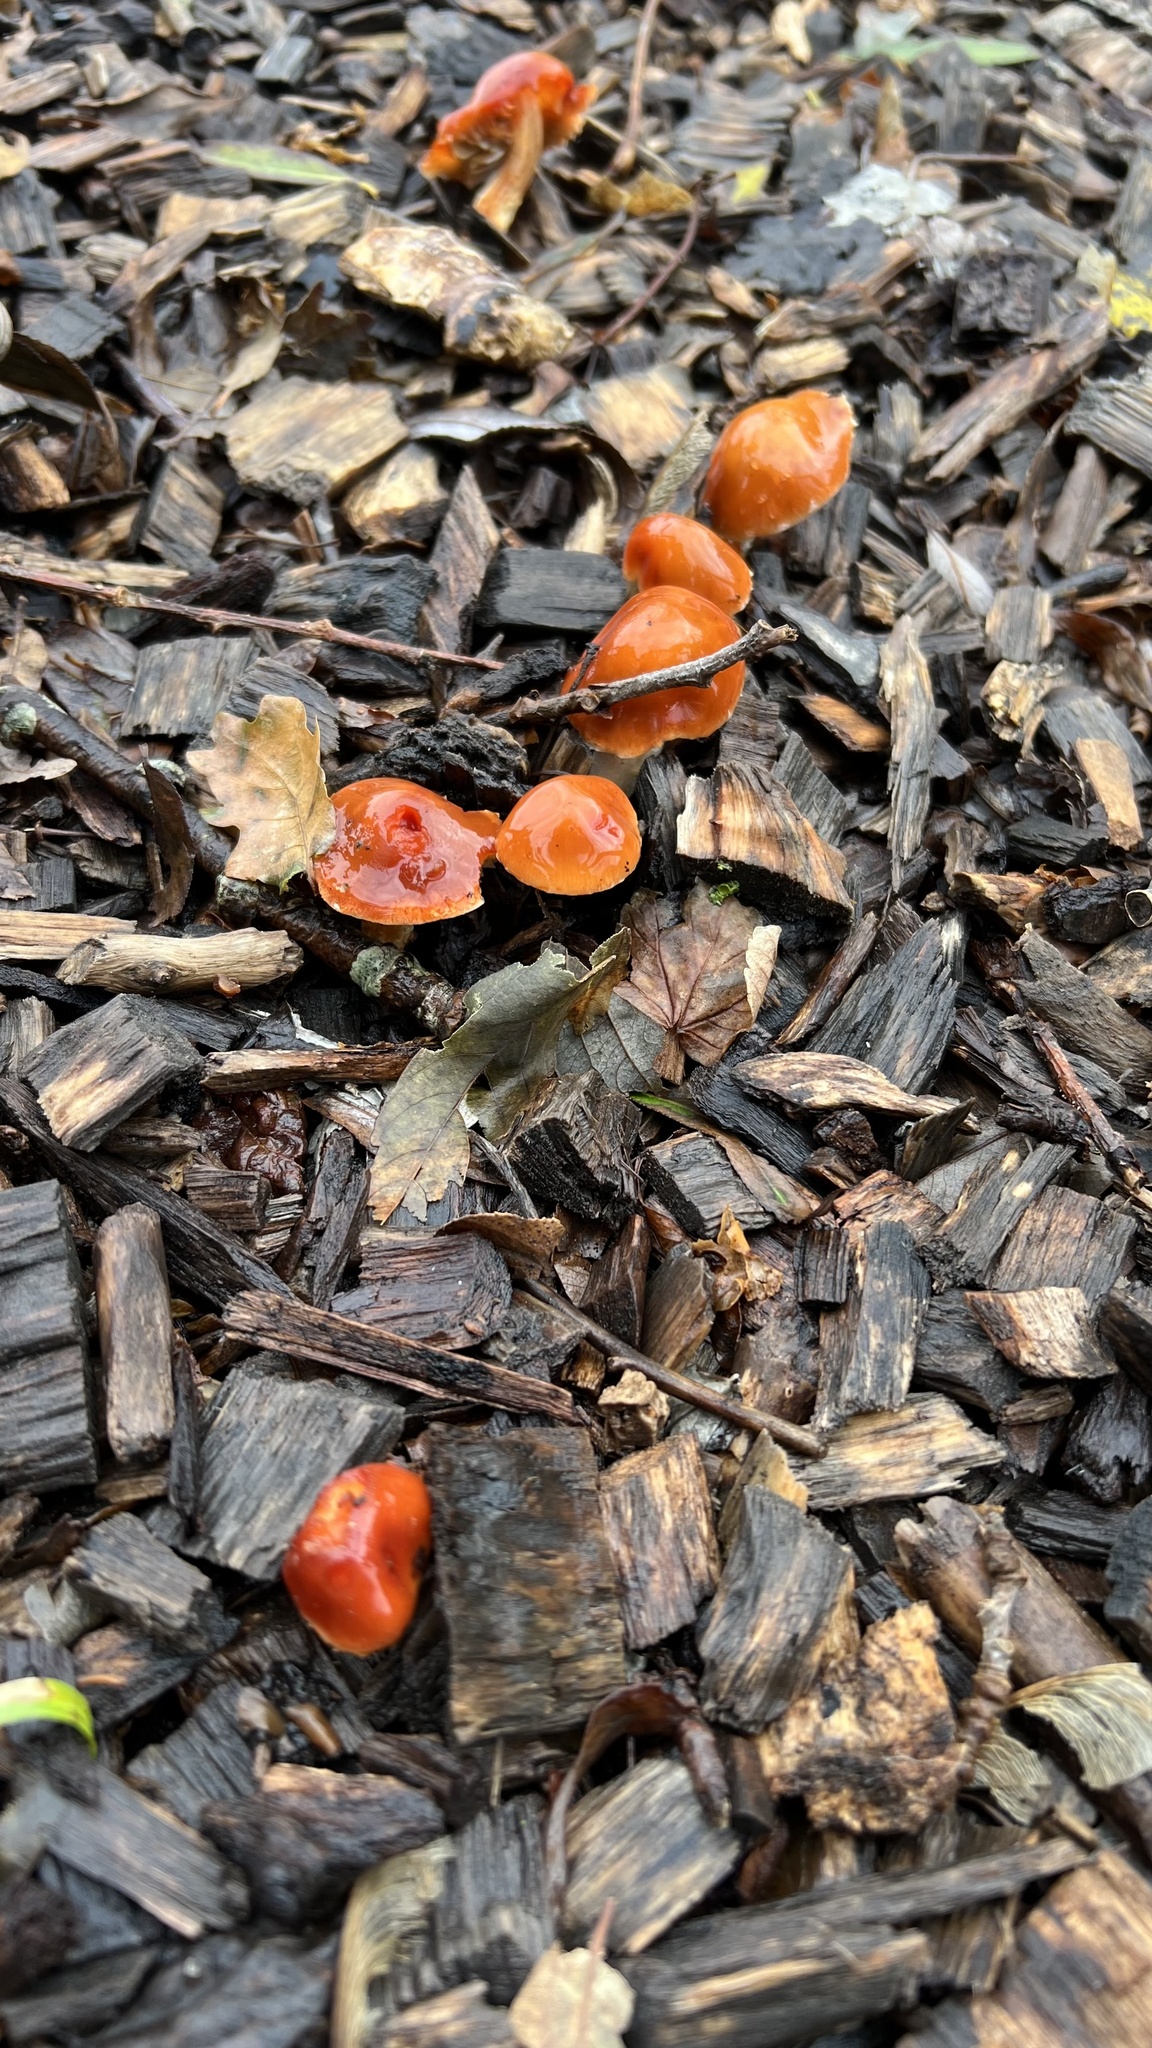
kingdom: Fungi
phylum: Basidiomycota
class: Agaricomycetes
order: Agaricales
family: Strophariaceae
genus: Leratiomyces
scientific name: Leratiomyces ceres
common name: Redlead roundhead
